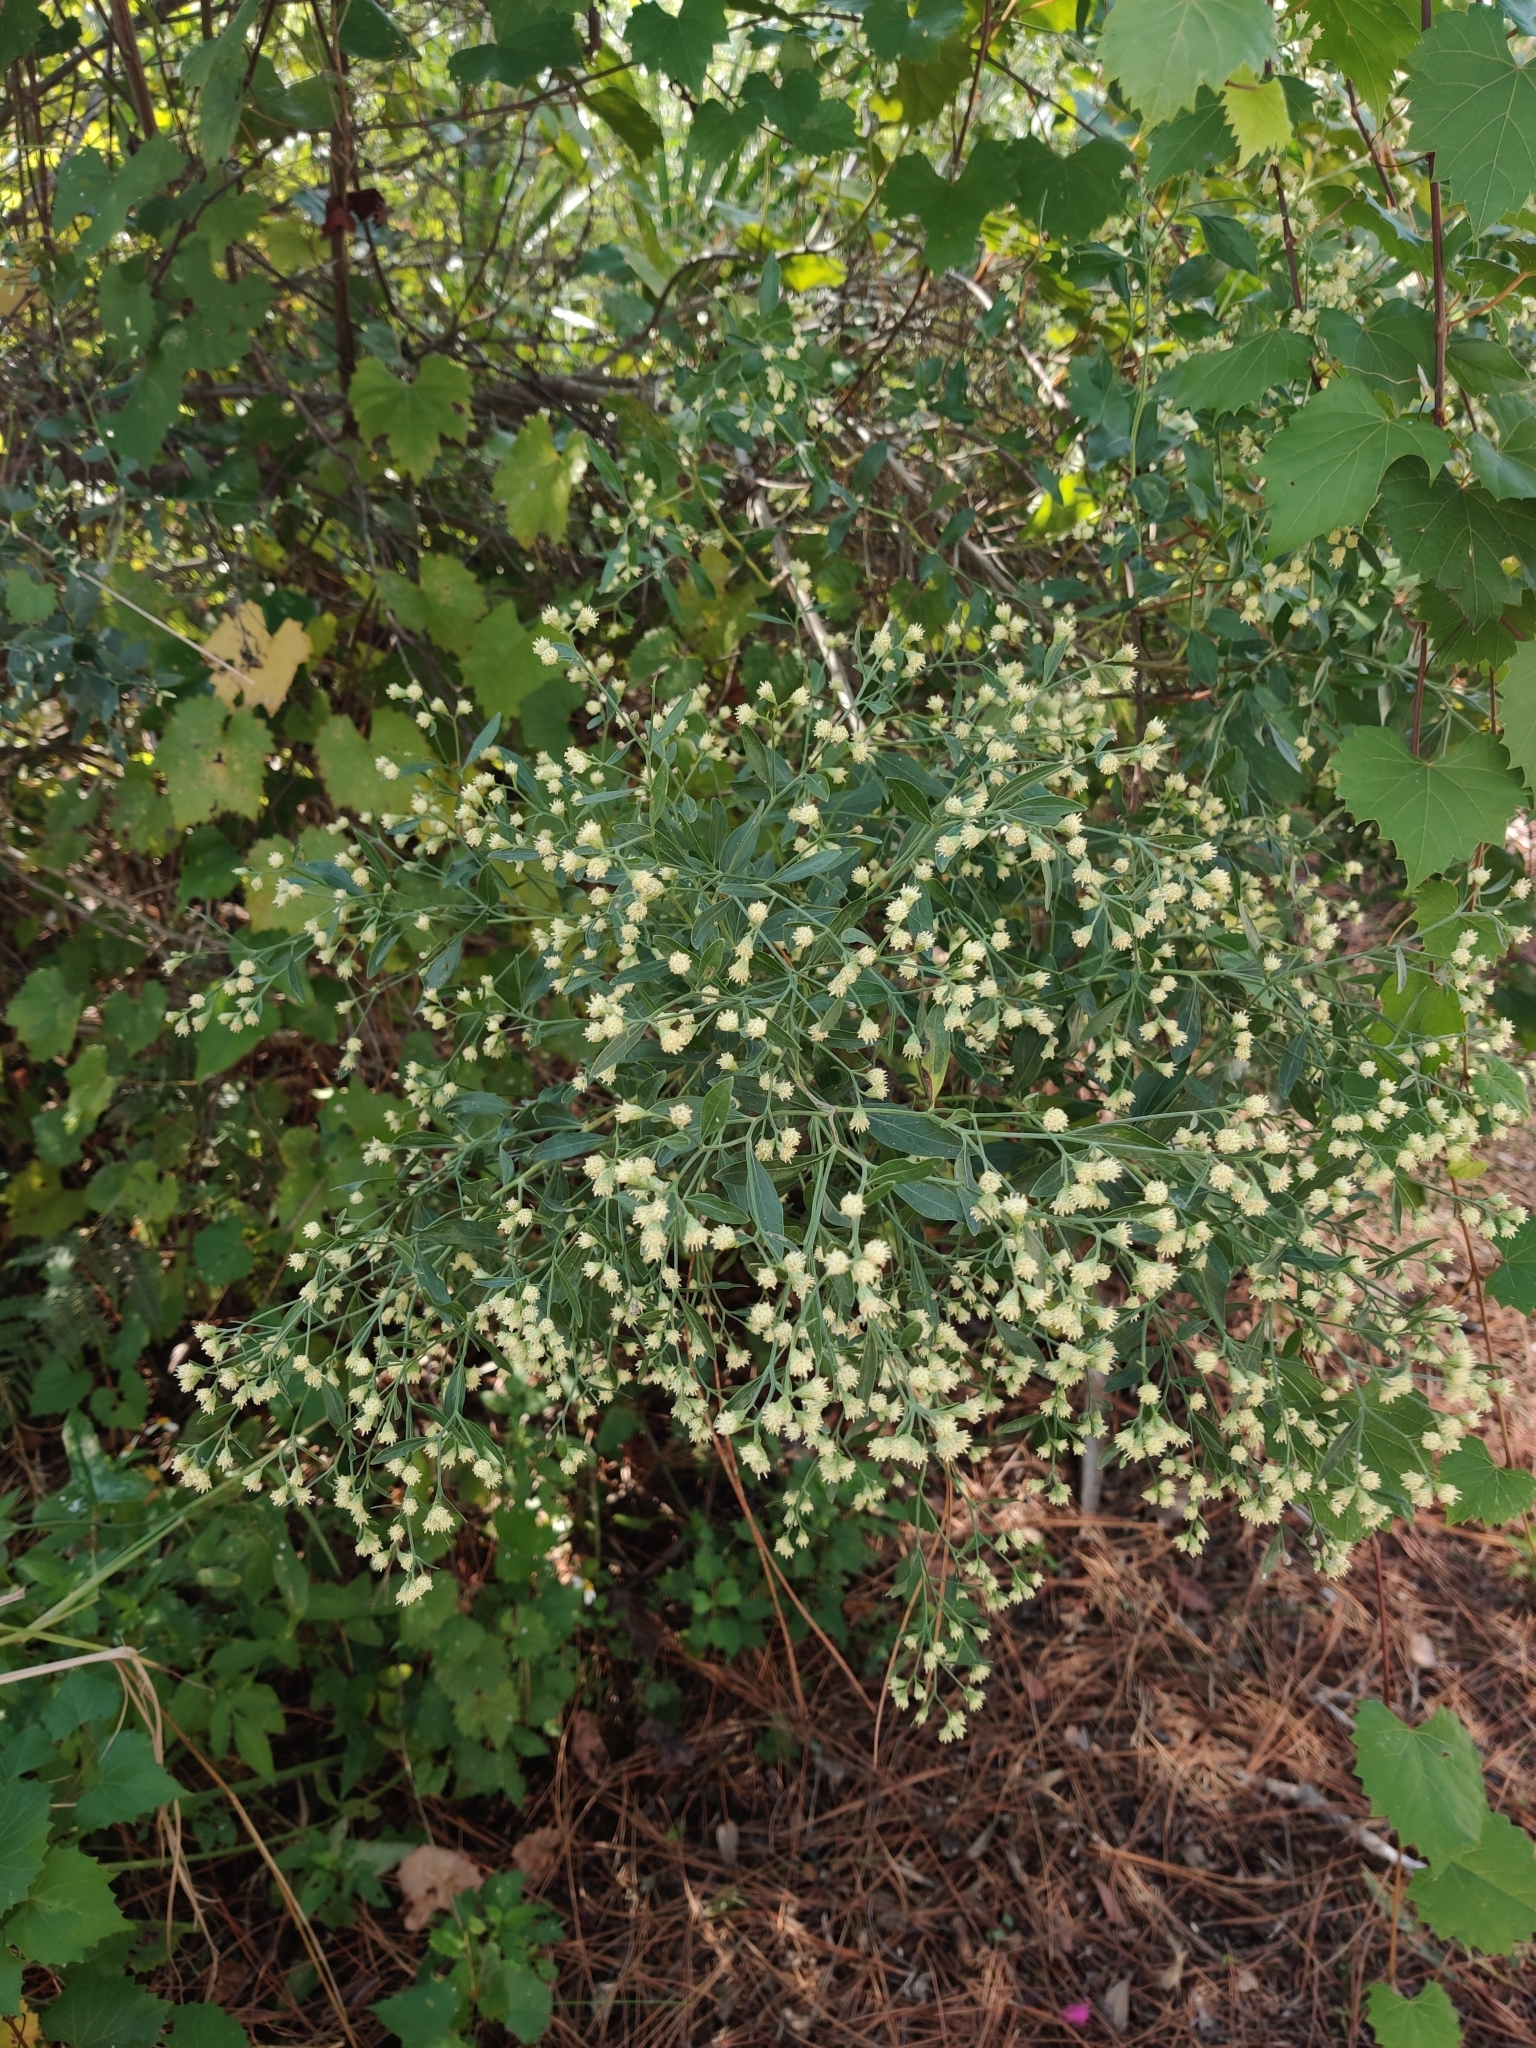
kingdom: Plantae
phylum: Tracheophyta
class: Magnoliopsida
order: Asterales
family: Asteraceae
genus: Baccharis
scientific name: Baccharis halimifolia
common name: Eastern baccharis
